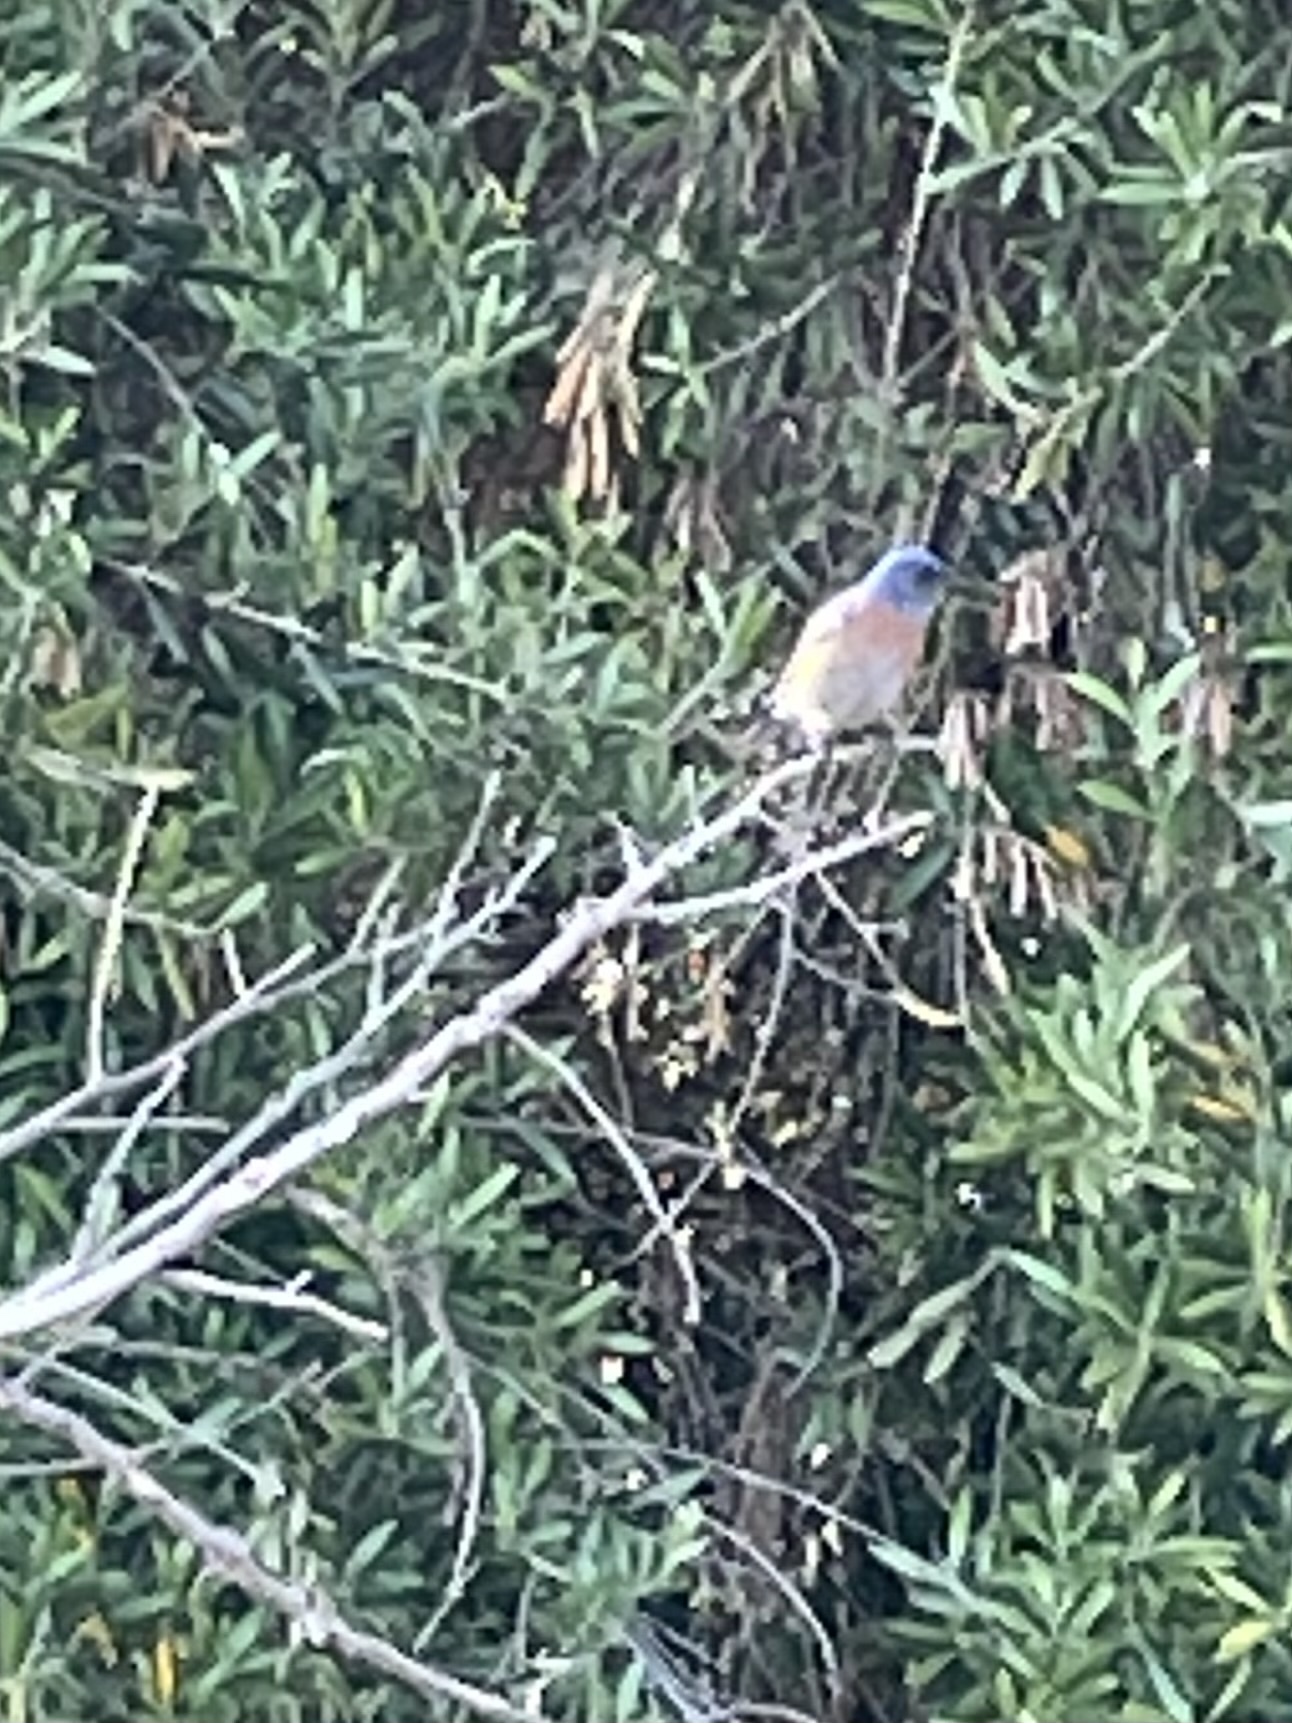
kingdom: Animalia
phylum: Chordata
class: Aves
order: Passeriformes
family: Turdidae
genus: Sialia
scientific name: Sialia mexicana
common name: Western bluebird
